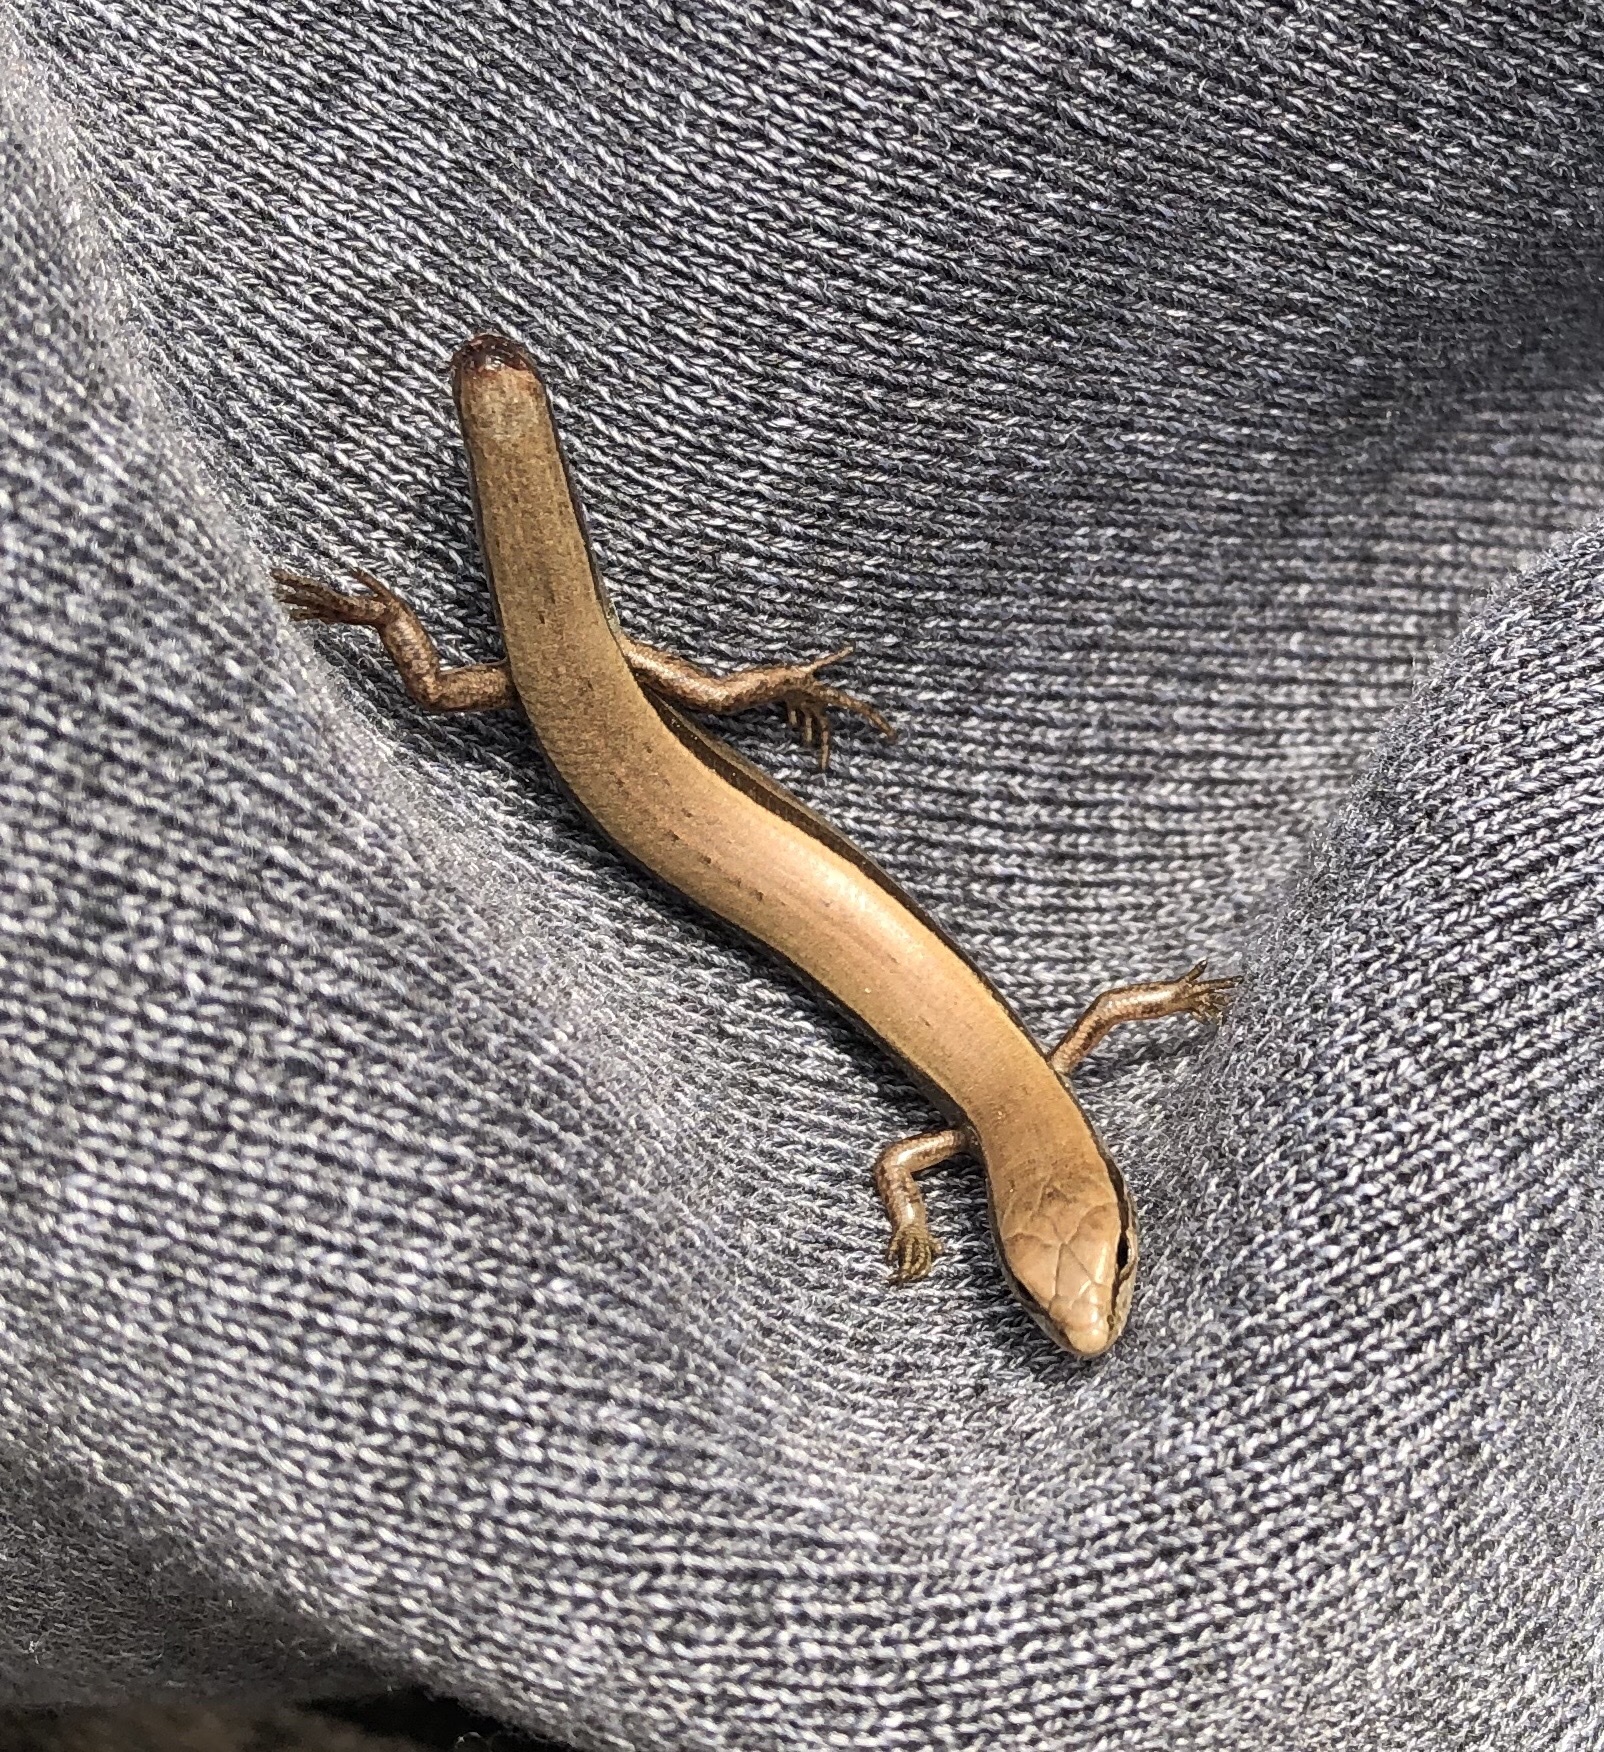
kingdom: Animalia
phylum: Chordata
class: Squamata
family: Scincidae
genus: Scincella
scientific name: Scincella lateralis
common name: Ground skink
